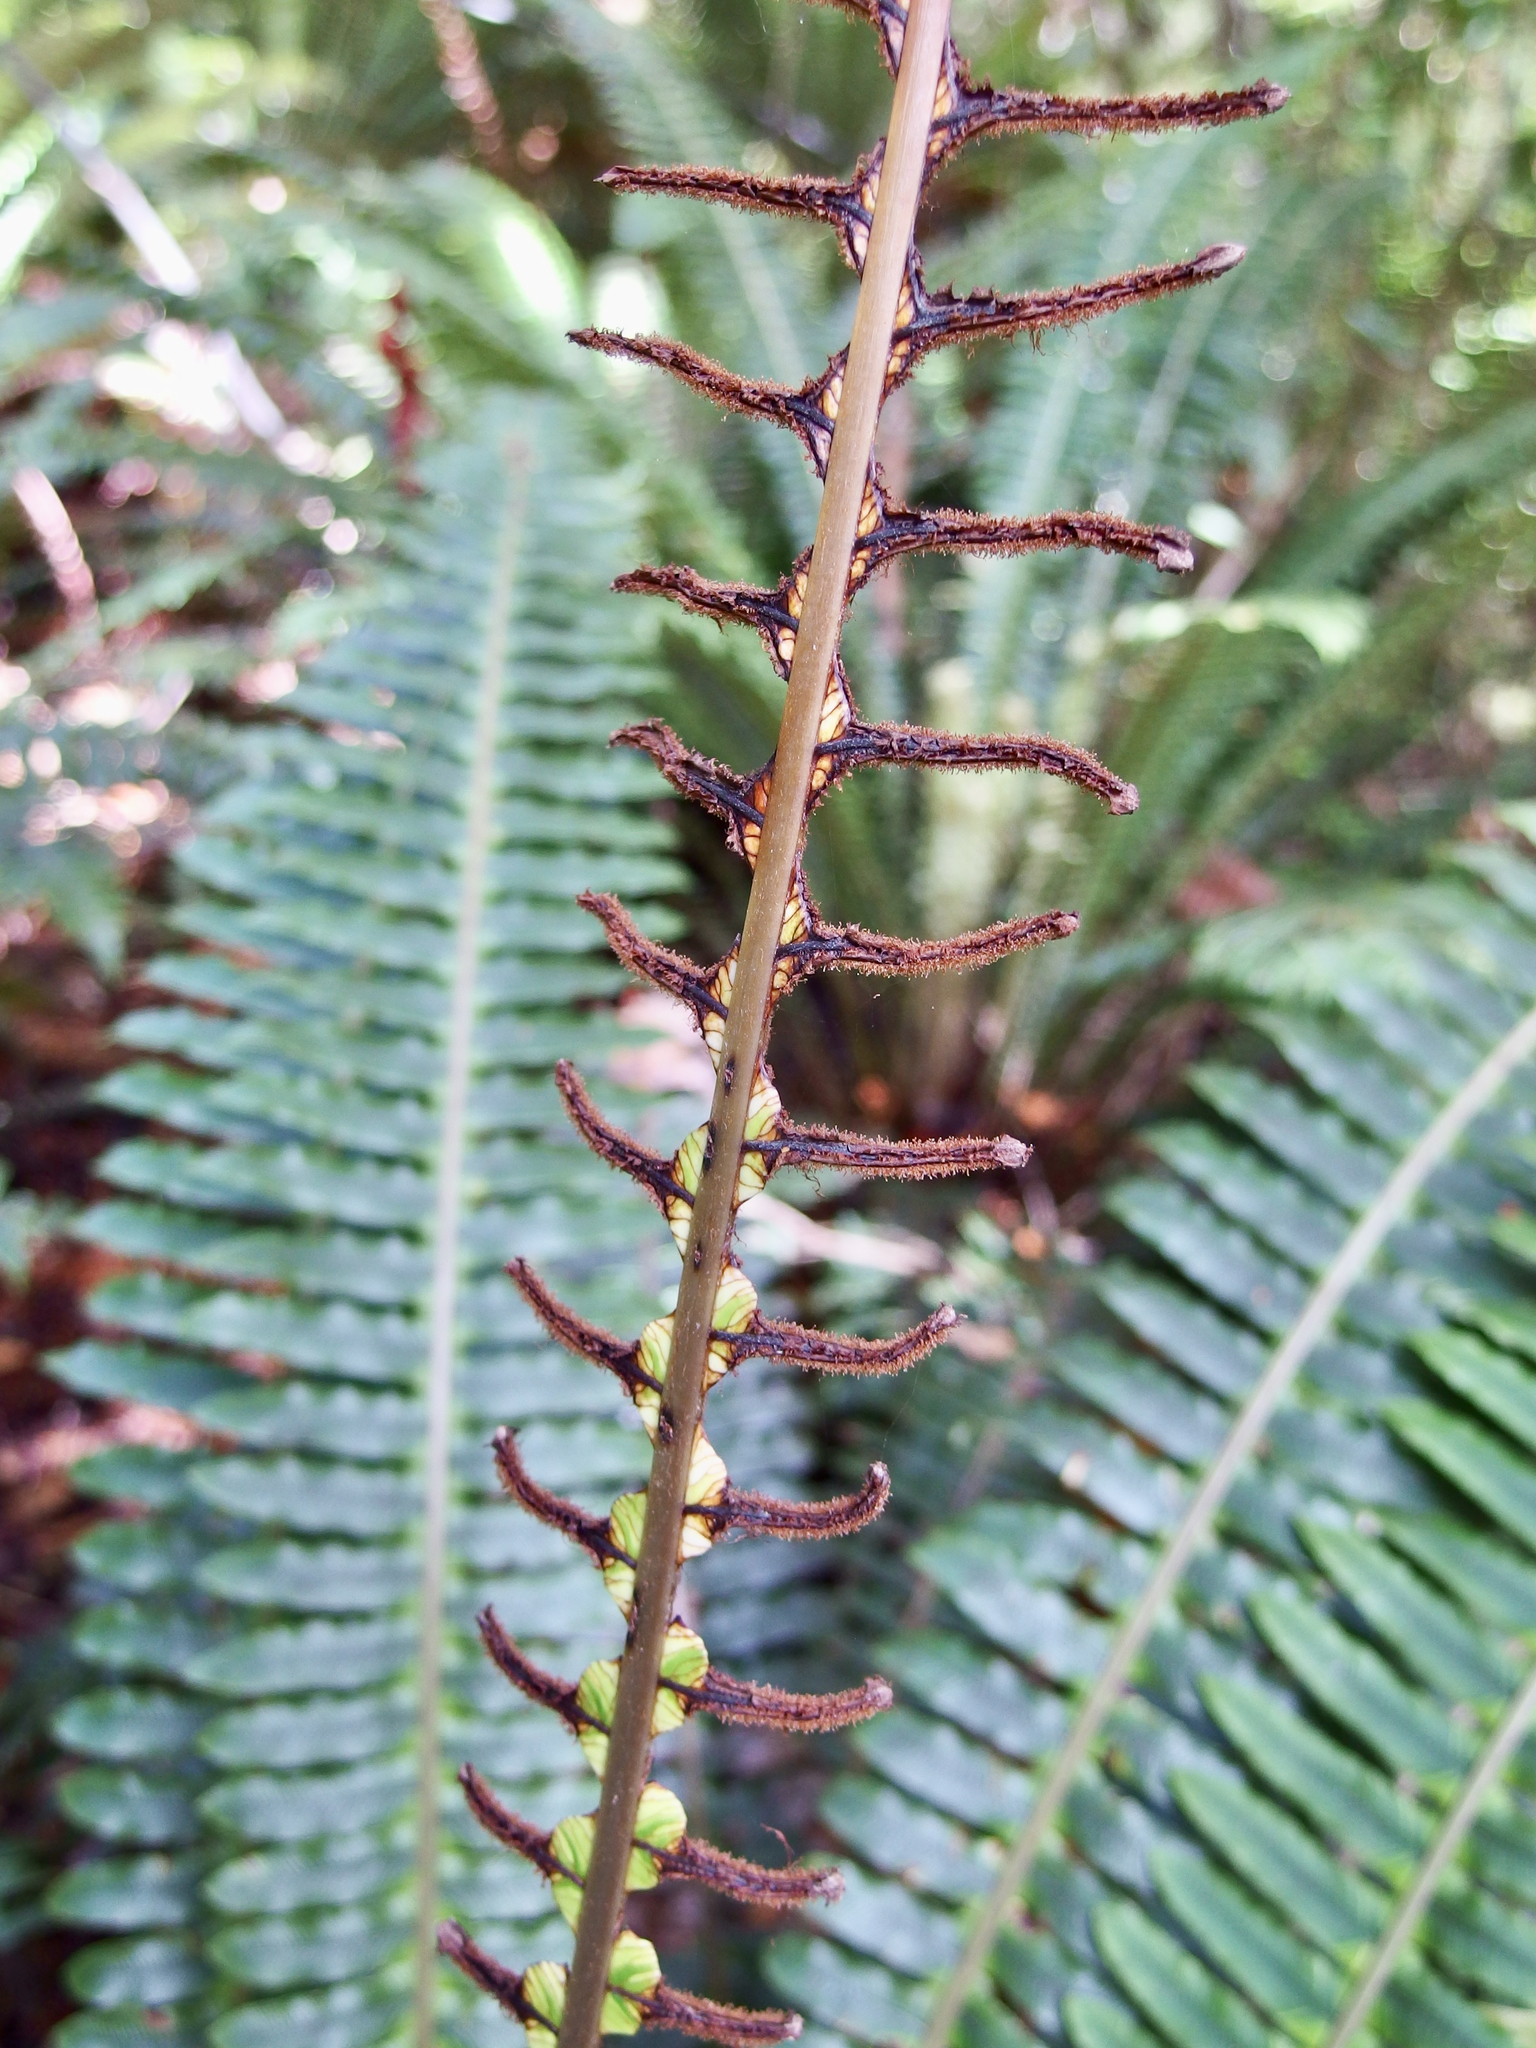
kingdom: Plantae
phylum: Tracheophyta
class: Polypodiopsida
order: Polypodiales
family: Blechnaceae
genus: Parablechnum
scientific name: Parablechnum novae-zelandiae
